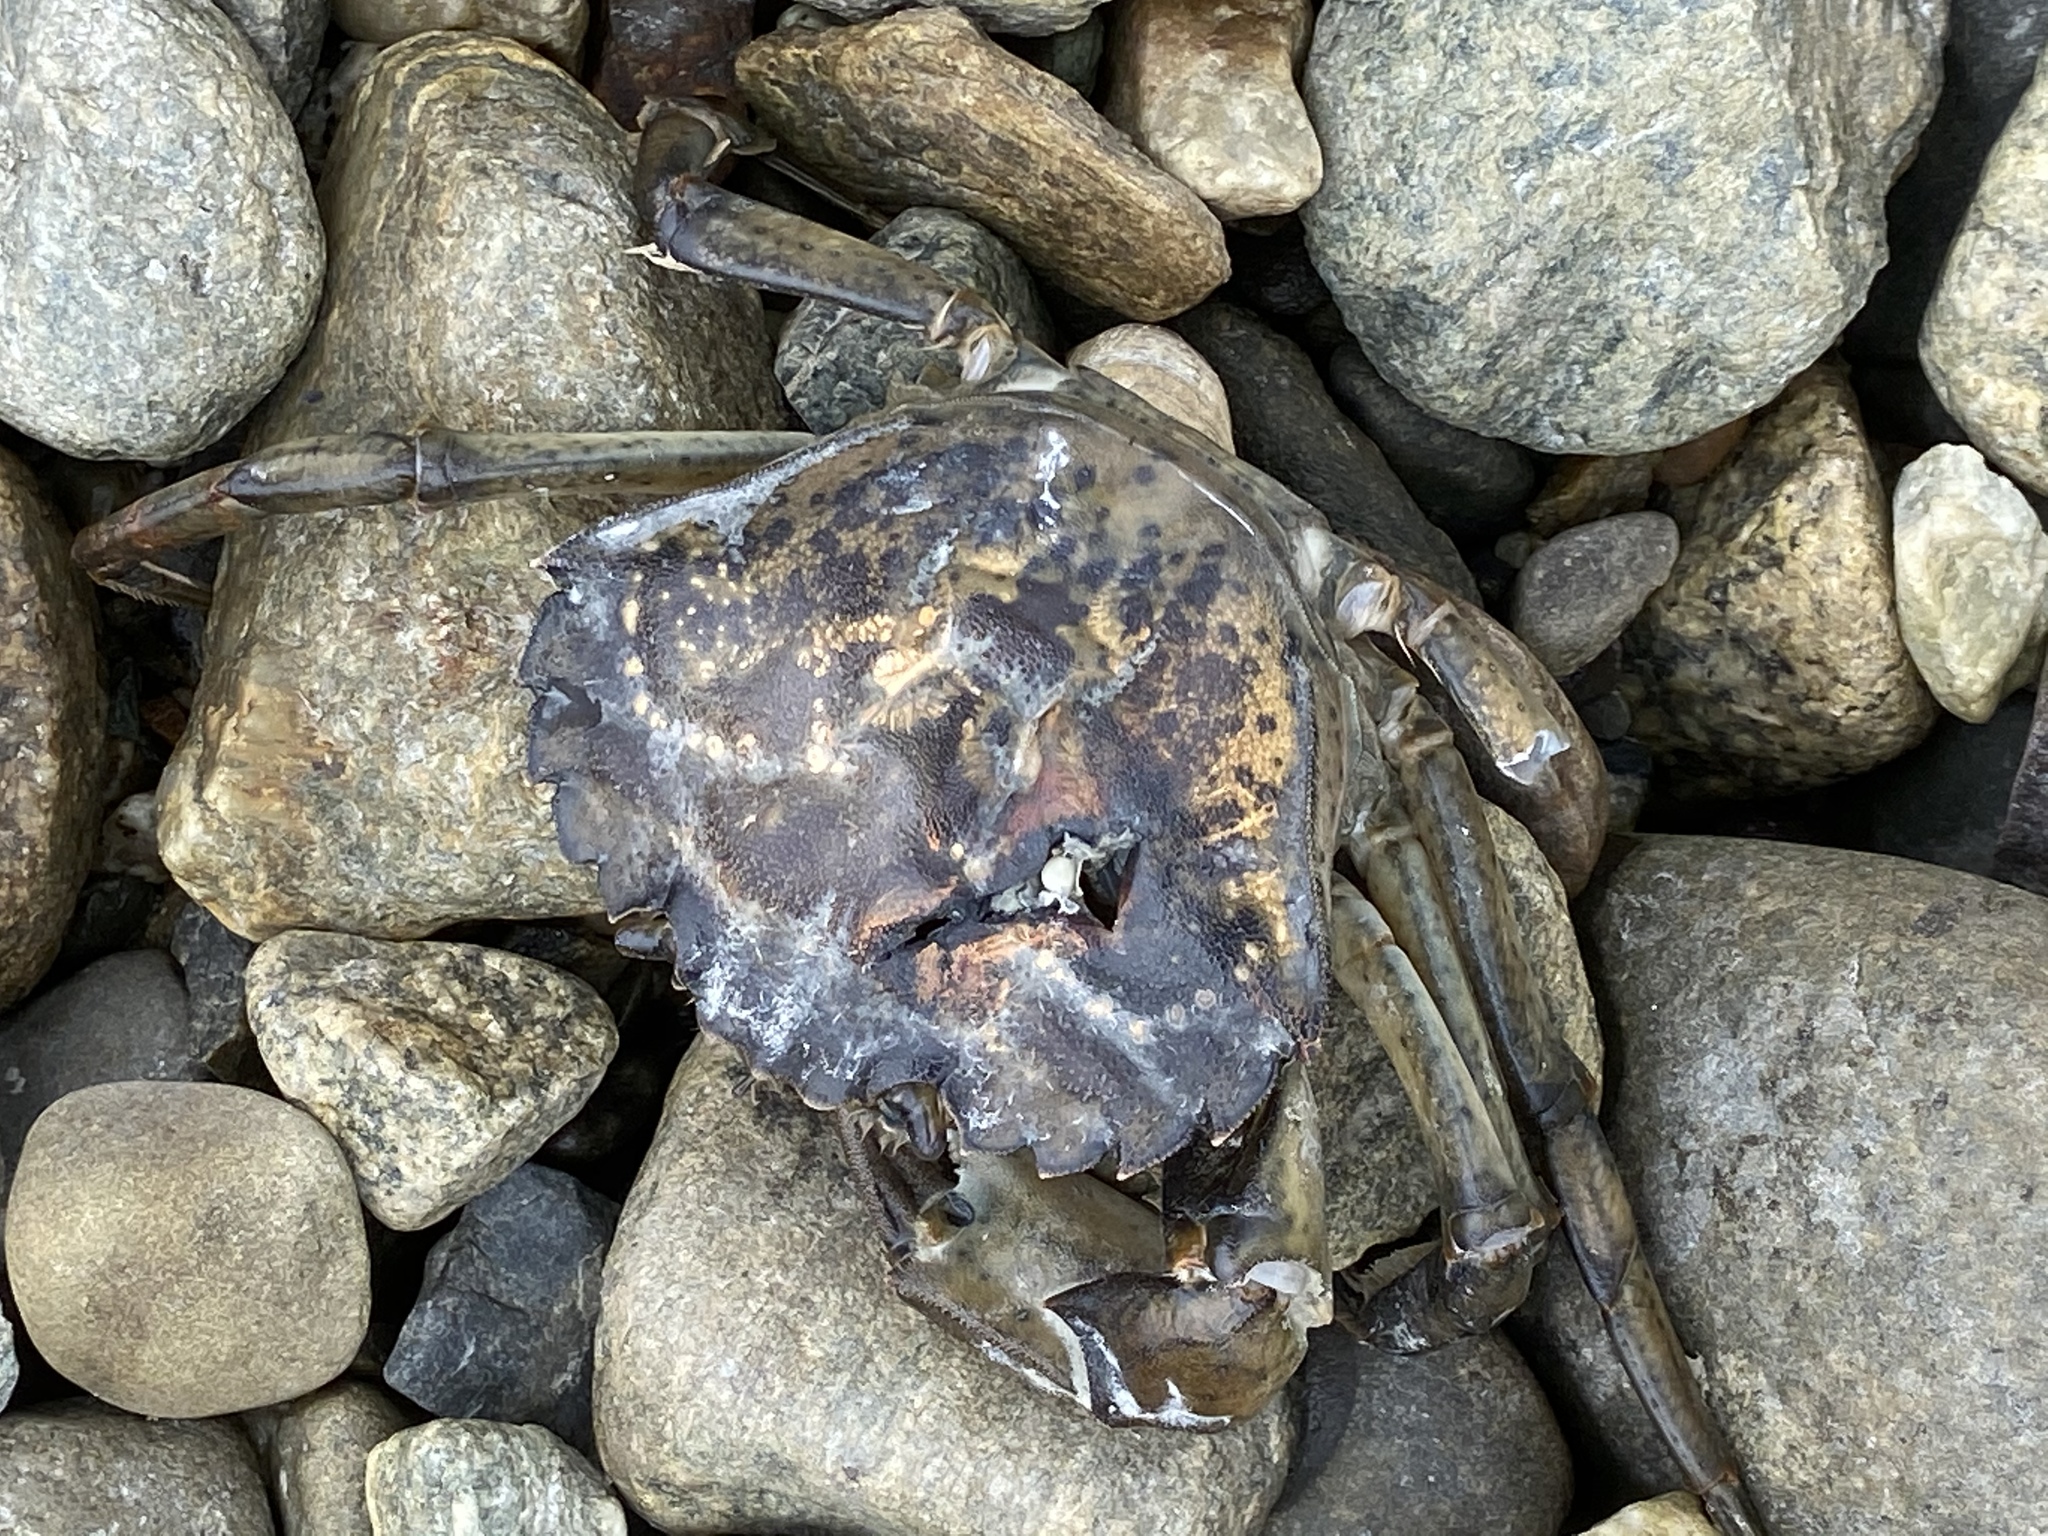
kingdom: Animalia
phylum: Arthropoda
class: Malacostraca
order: Decapoda
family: Carcinidae
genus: Carcinus
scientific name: Carcinus maenas
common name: European green crab
